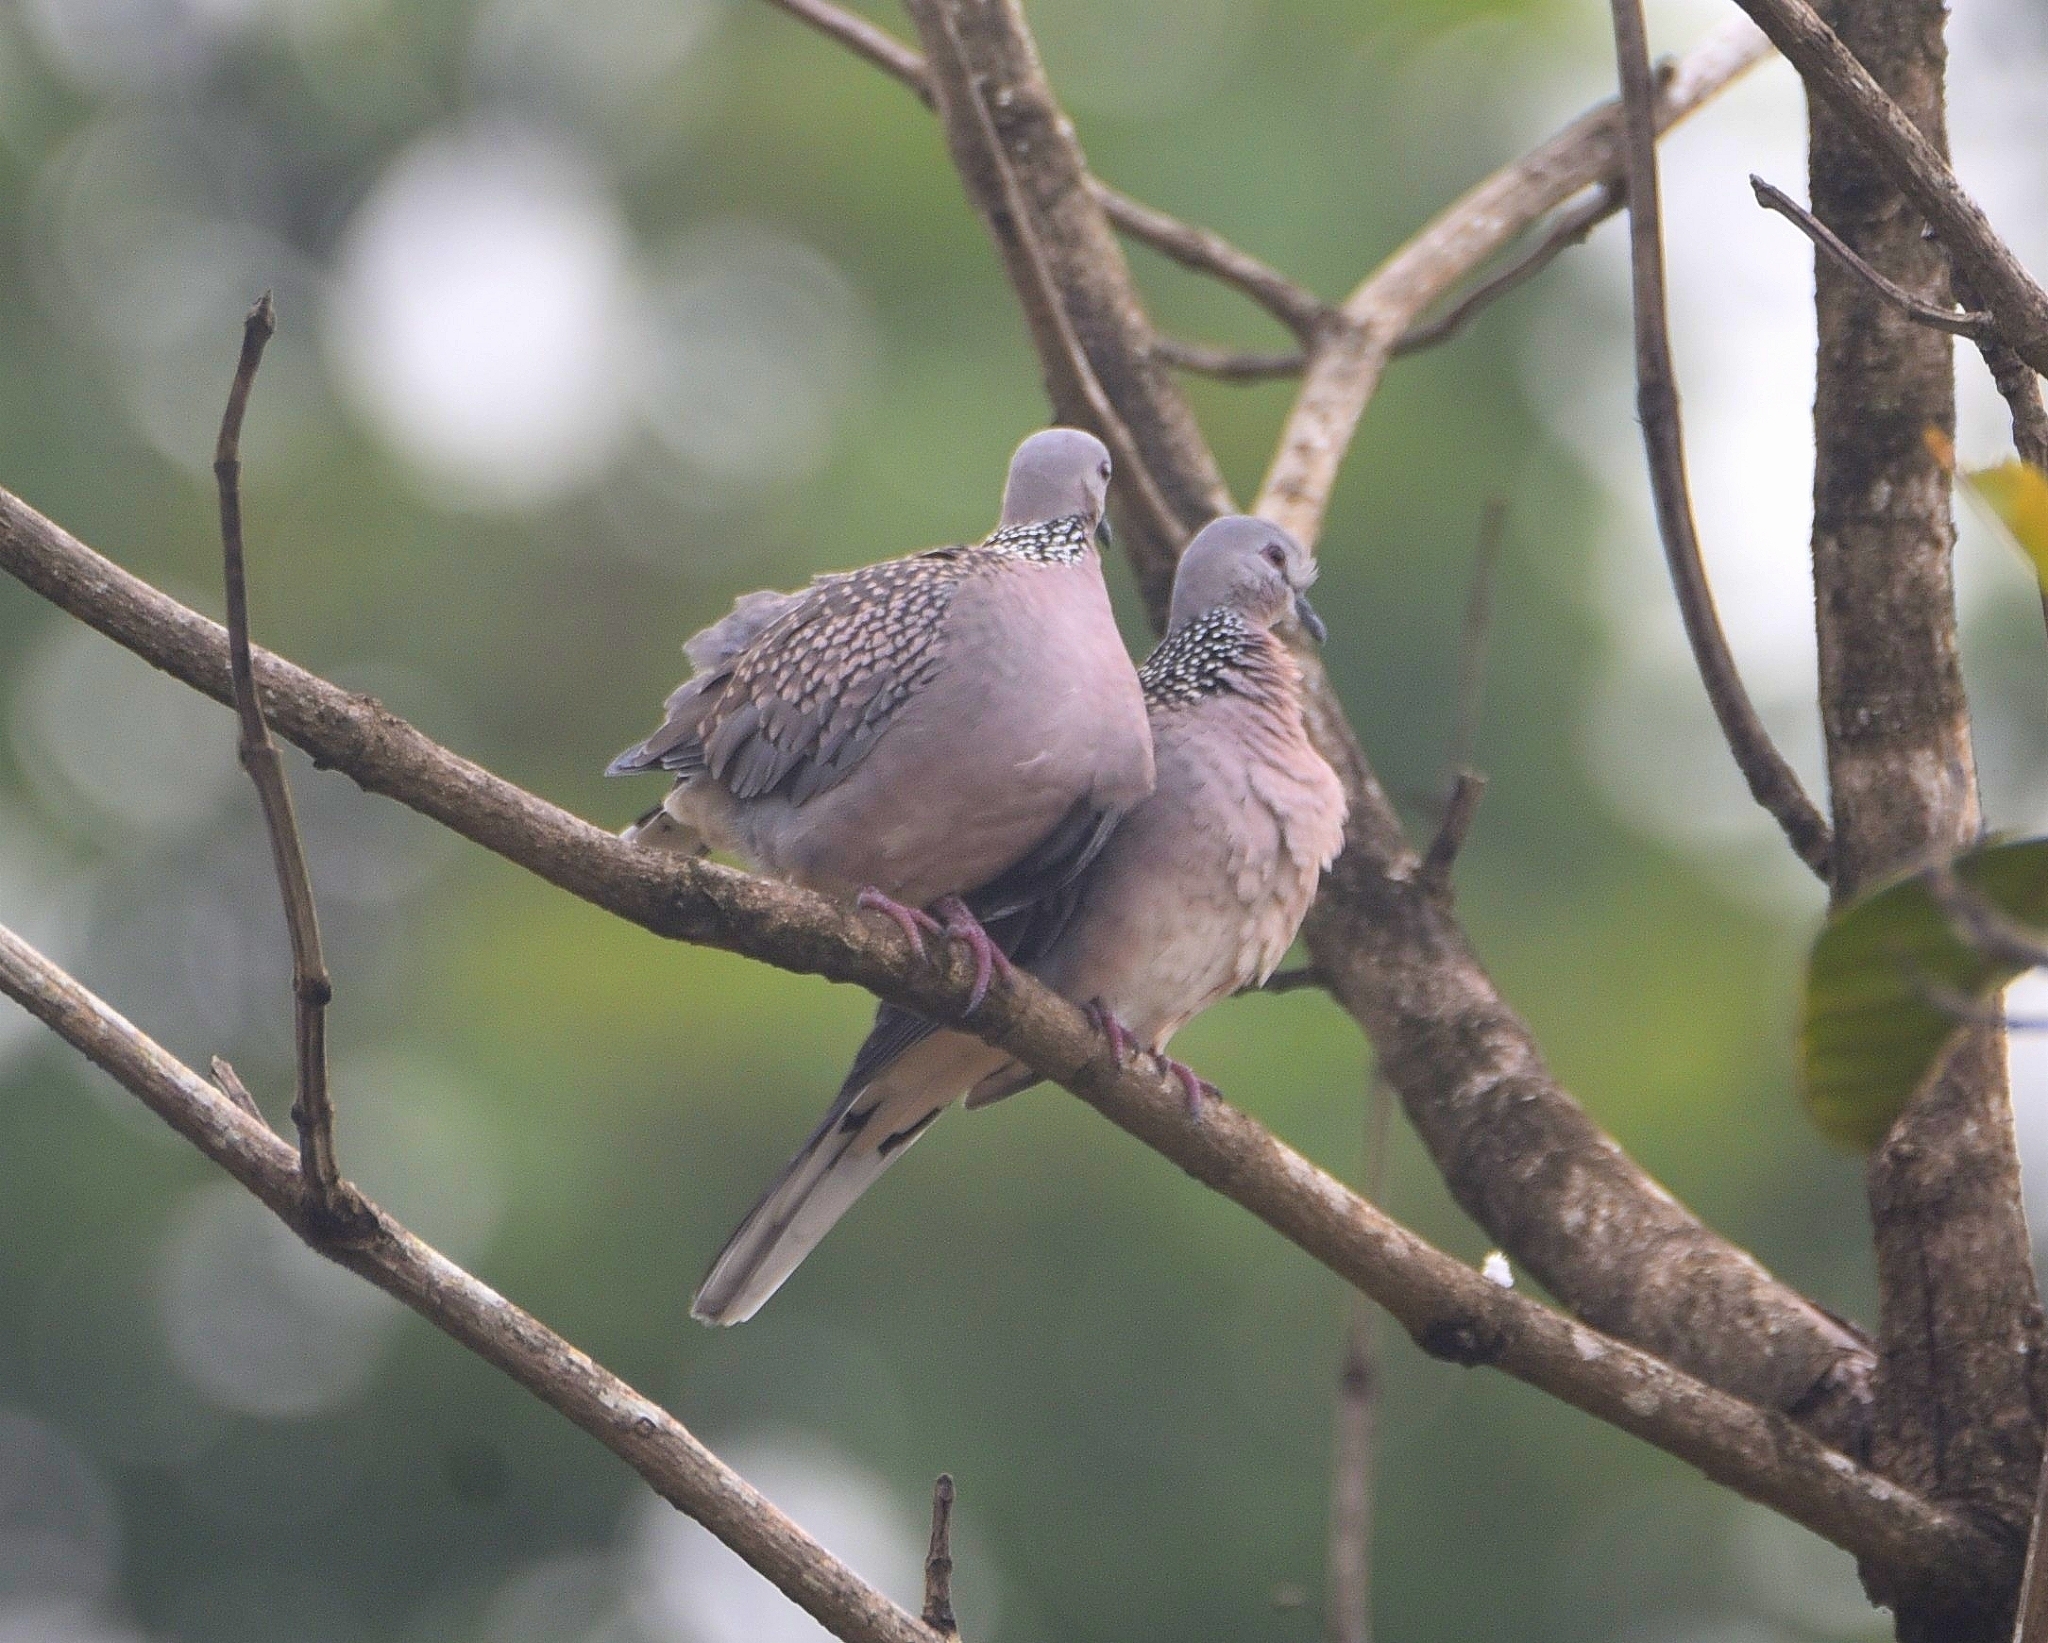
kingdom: Animalia
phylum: Chordata
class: Aves
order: Columbiformes
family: Columbidae
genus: Spilopelia
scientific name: Spilopelia chinensis
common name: Spotted dove
